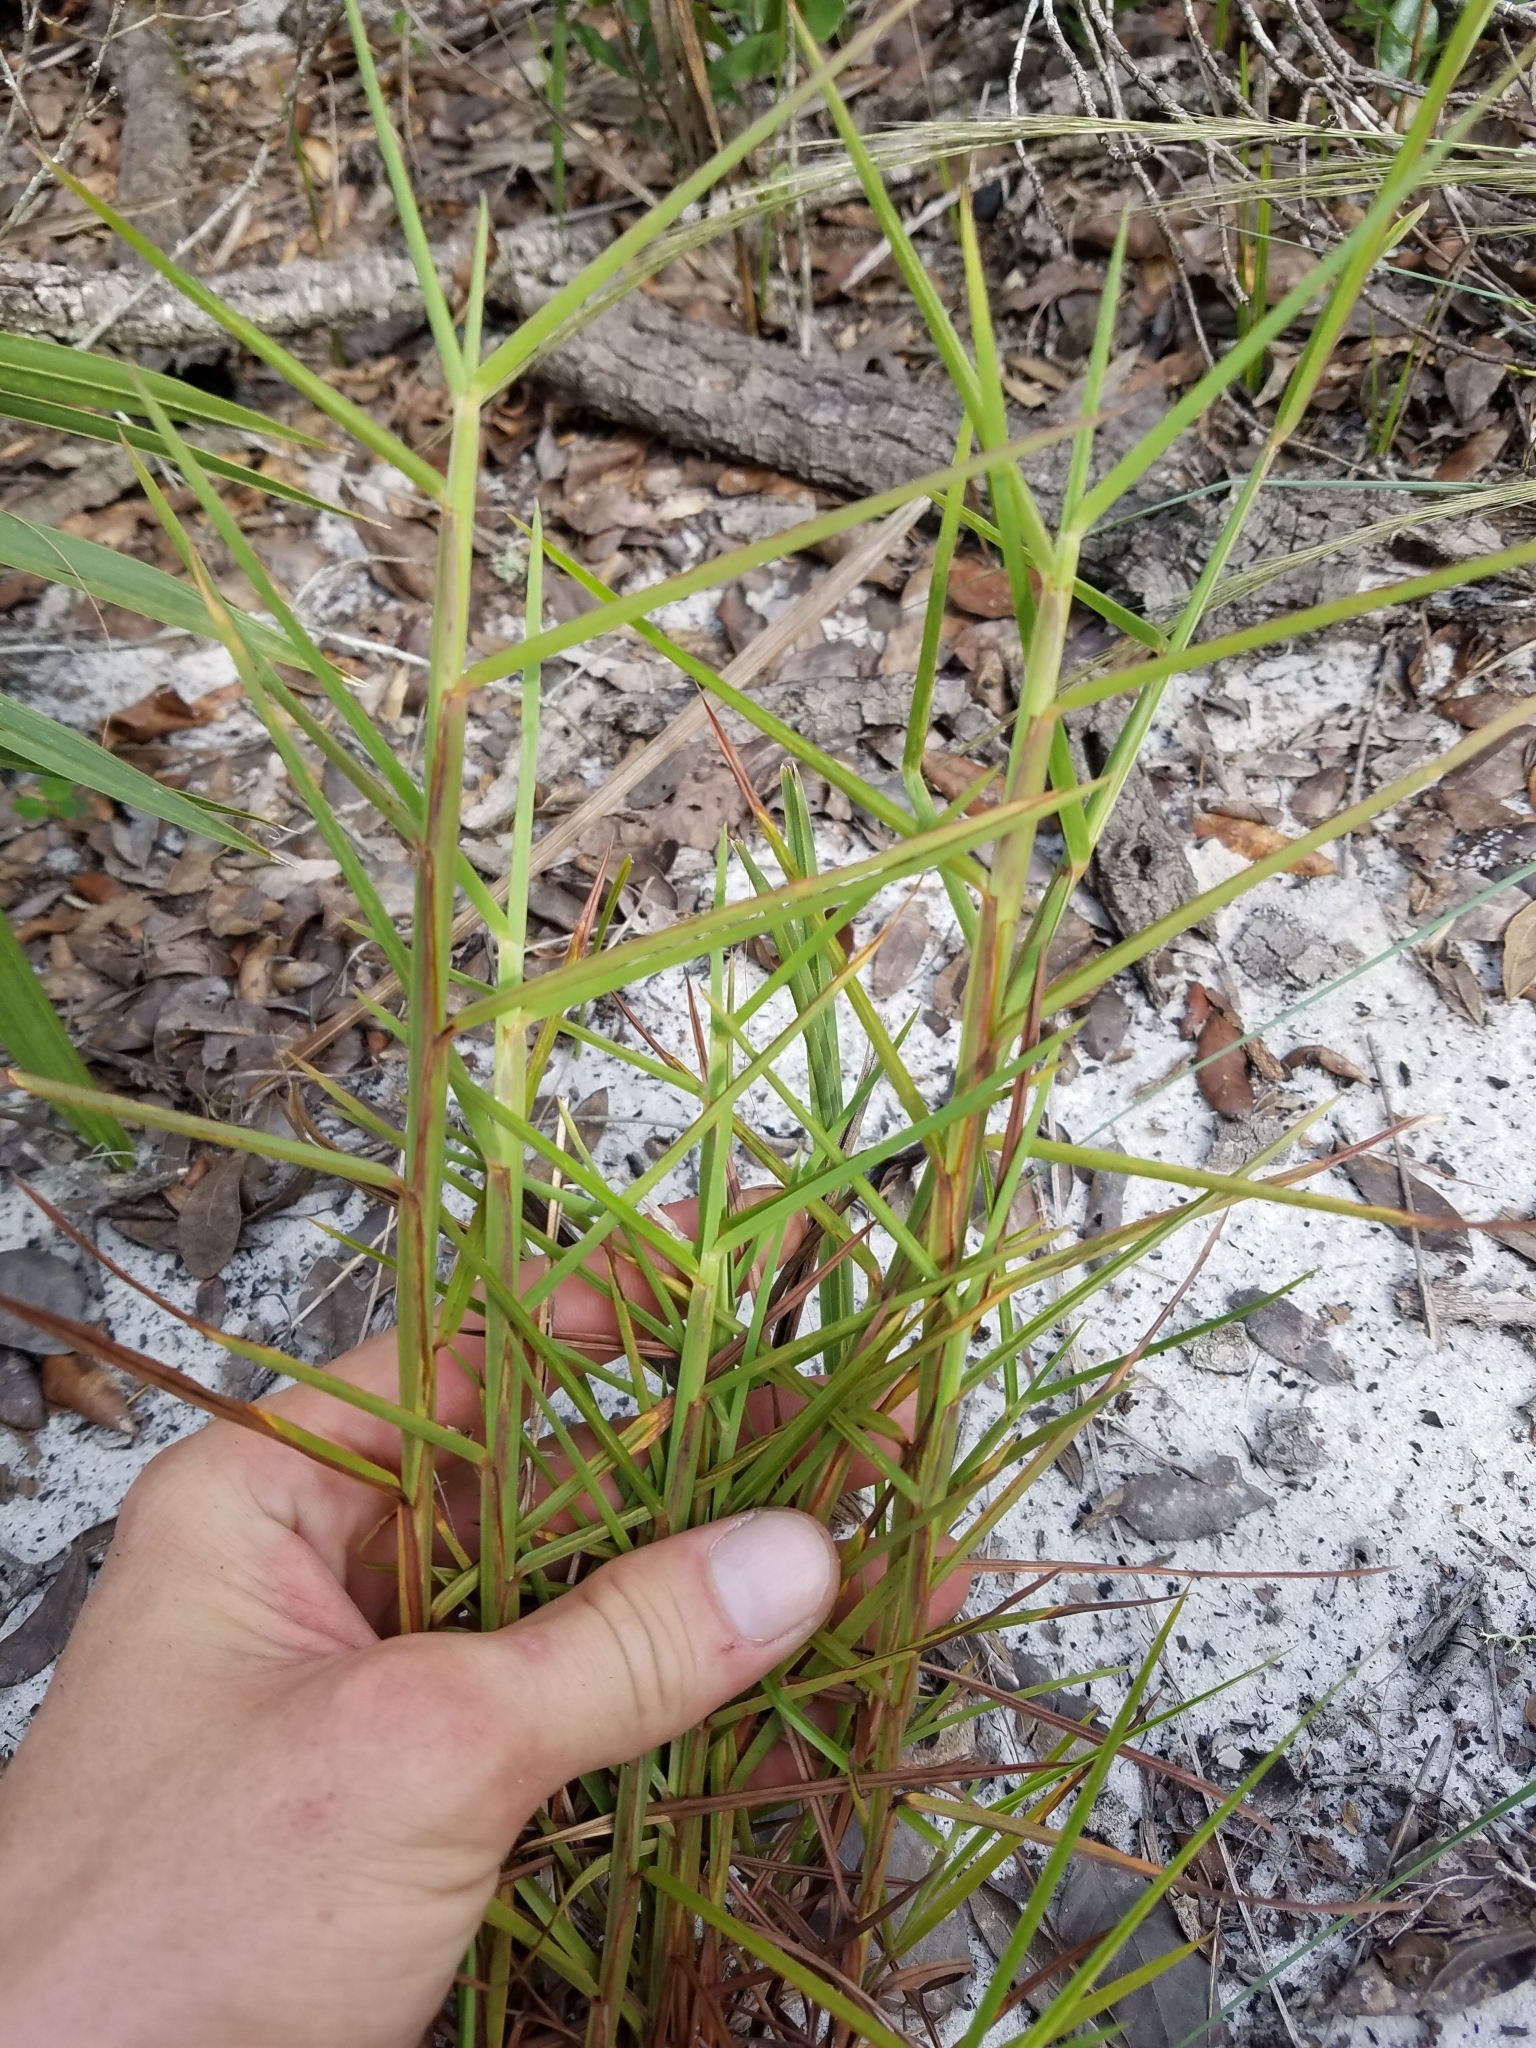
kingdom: Plantae
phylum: Tracheophyta
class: Liliopsida
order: Poales
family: Poaceae
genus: Schizachyrium
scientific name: Schizachyrium sanguineum
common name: Crimson bluestem
